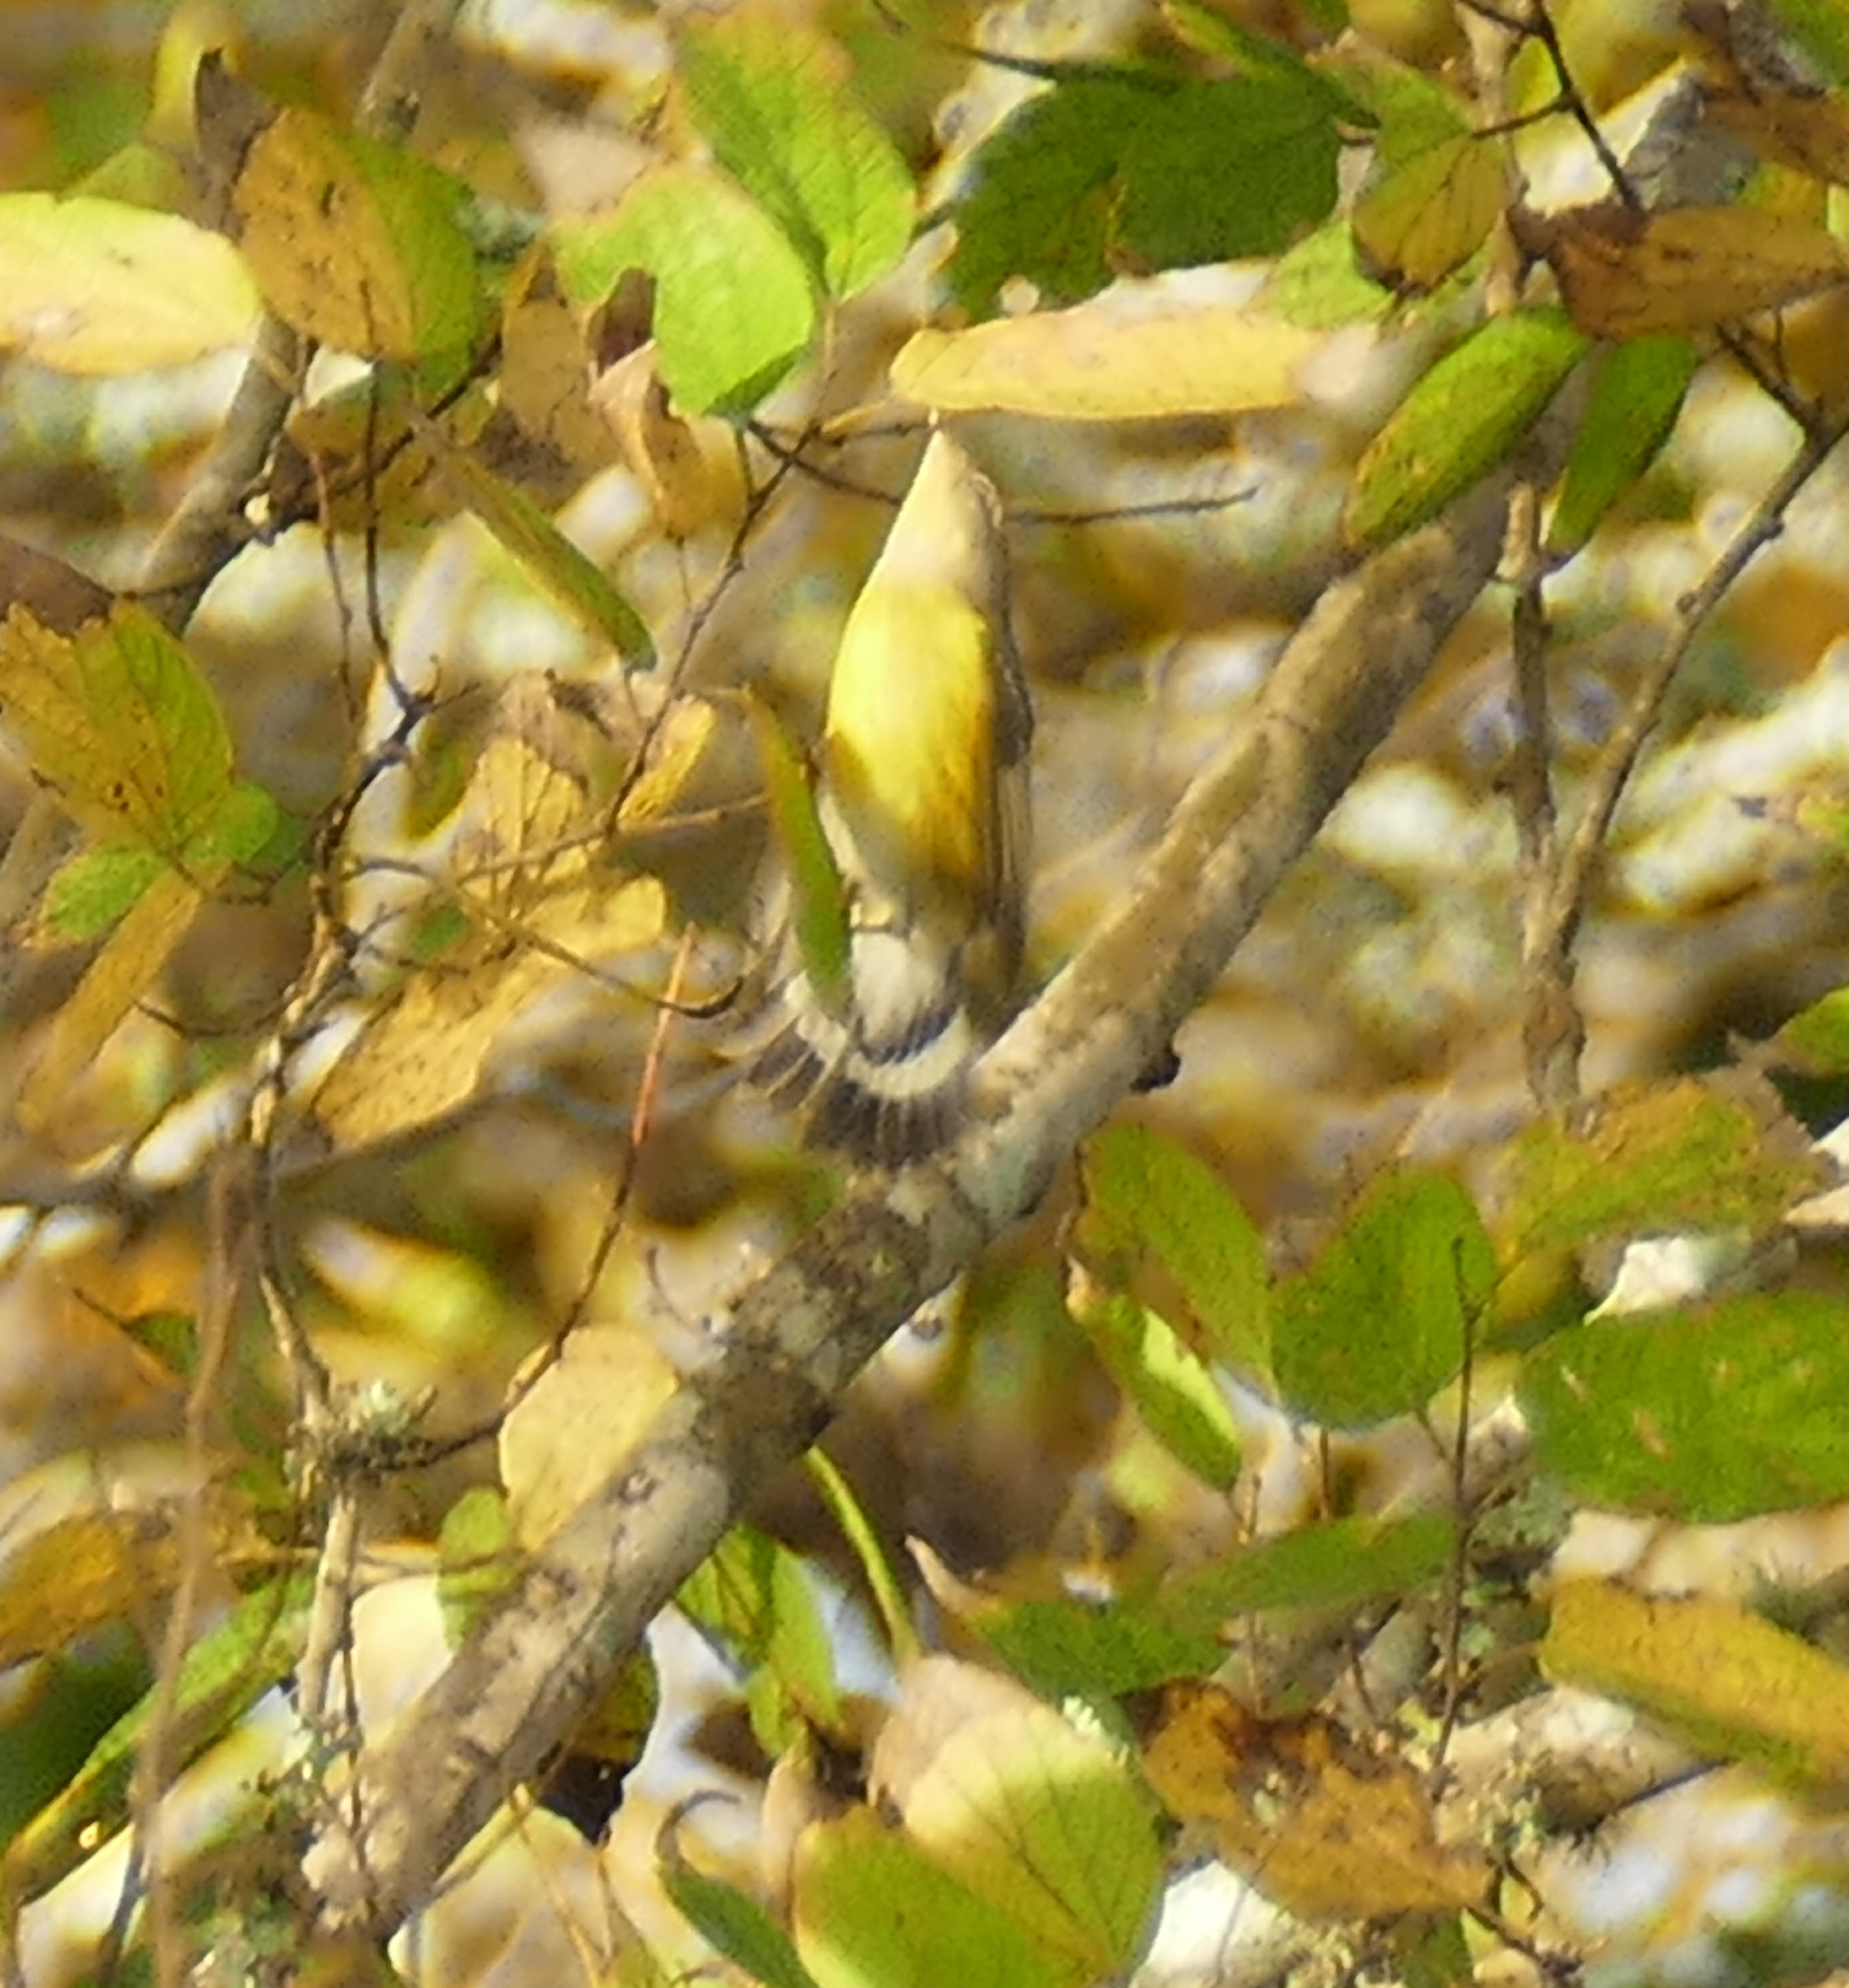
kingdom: Animalia
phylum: Chordata
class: Aves
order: Passeriformes
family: Parulidae
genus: Setophaga
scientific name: Setophaga magnolia
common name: Magnolia warbler
